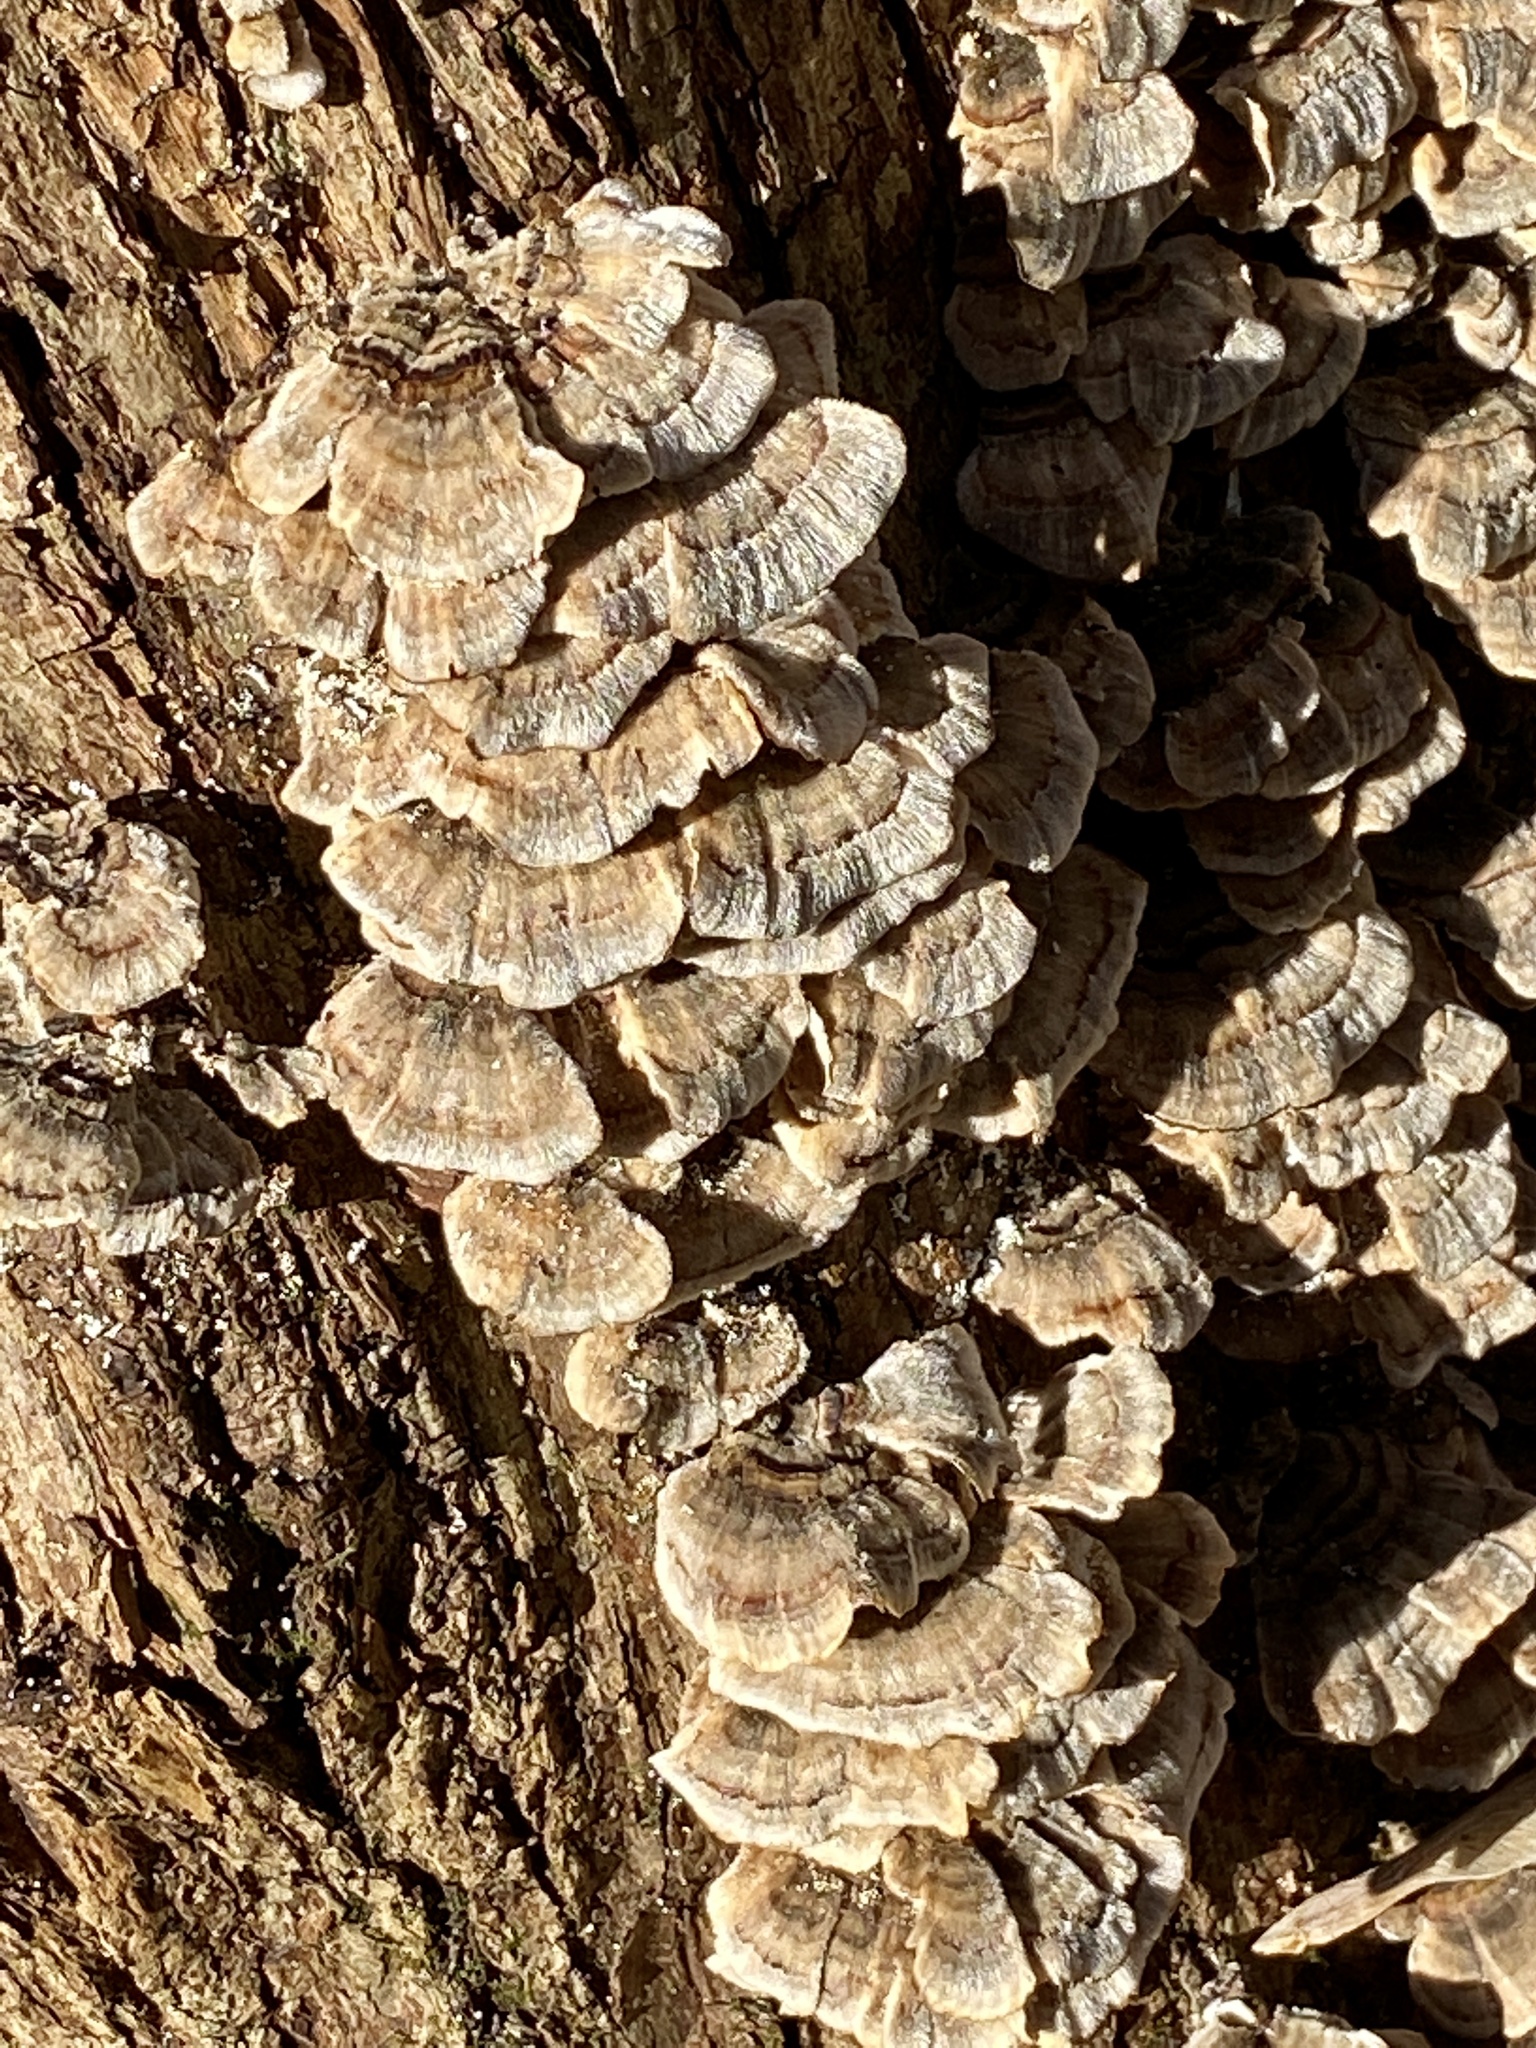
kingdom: Fungi
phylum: Basidiomycota
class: Agaricomycetes
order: Polyporales
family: Polyporaceae
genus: Trametes
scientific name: Trametes versicolor
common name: Turkeytail
